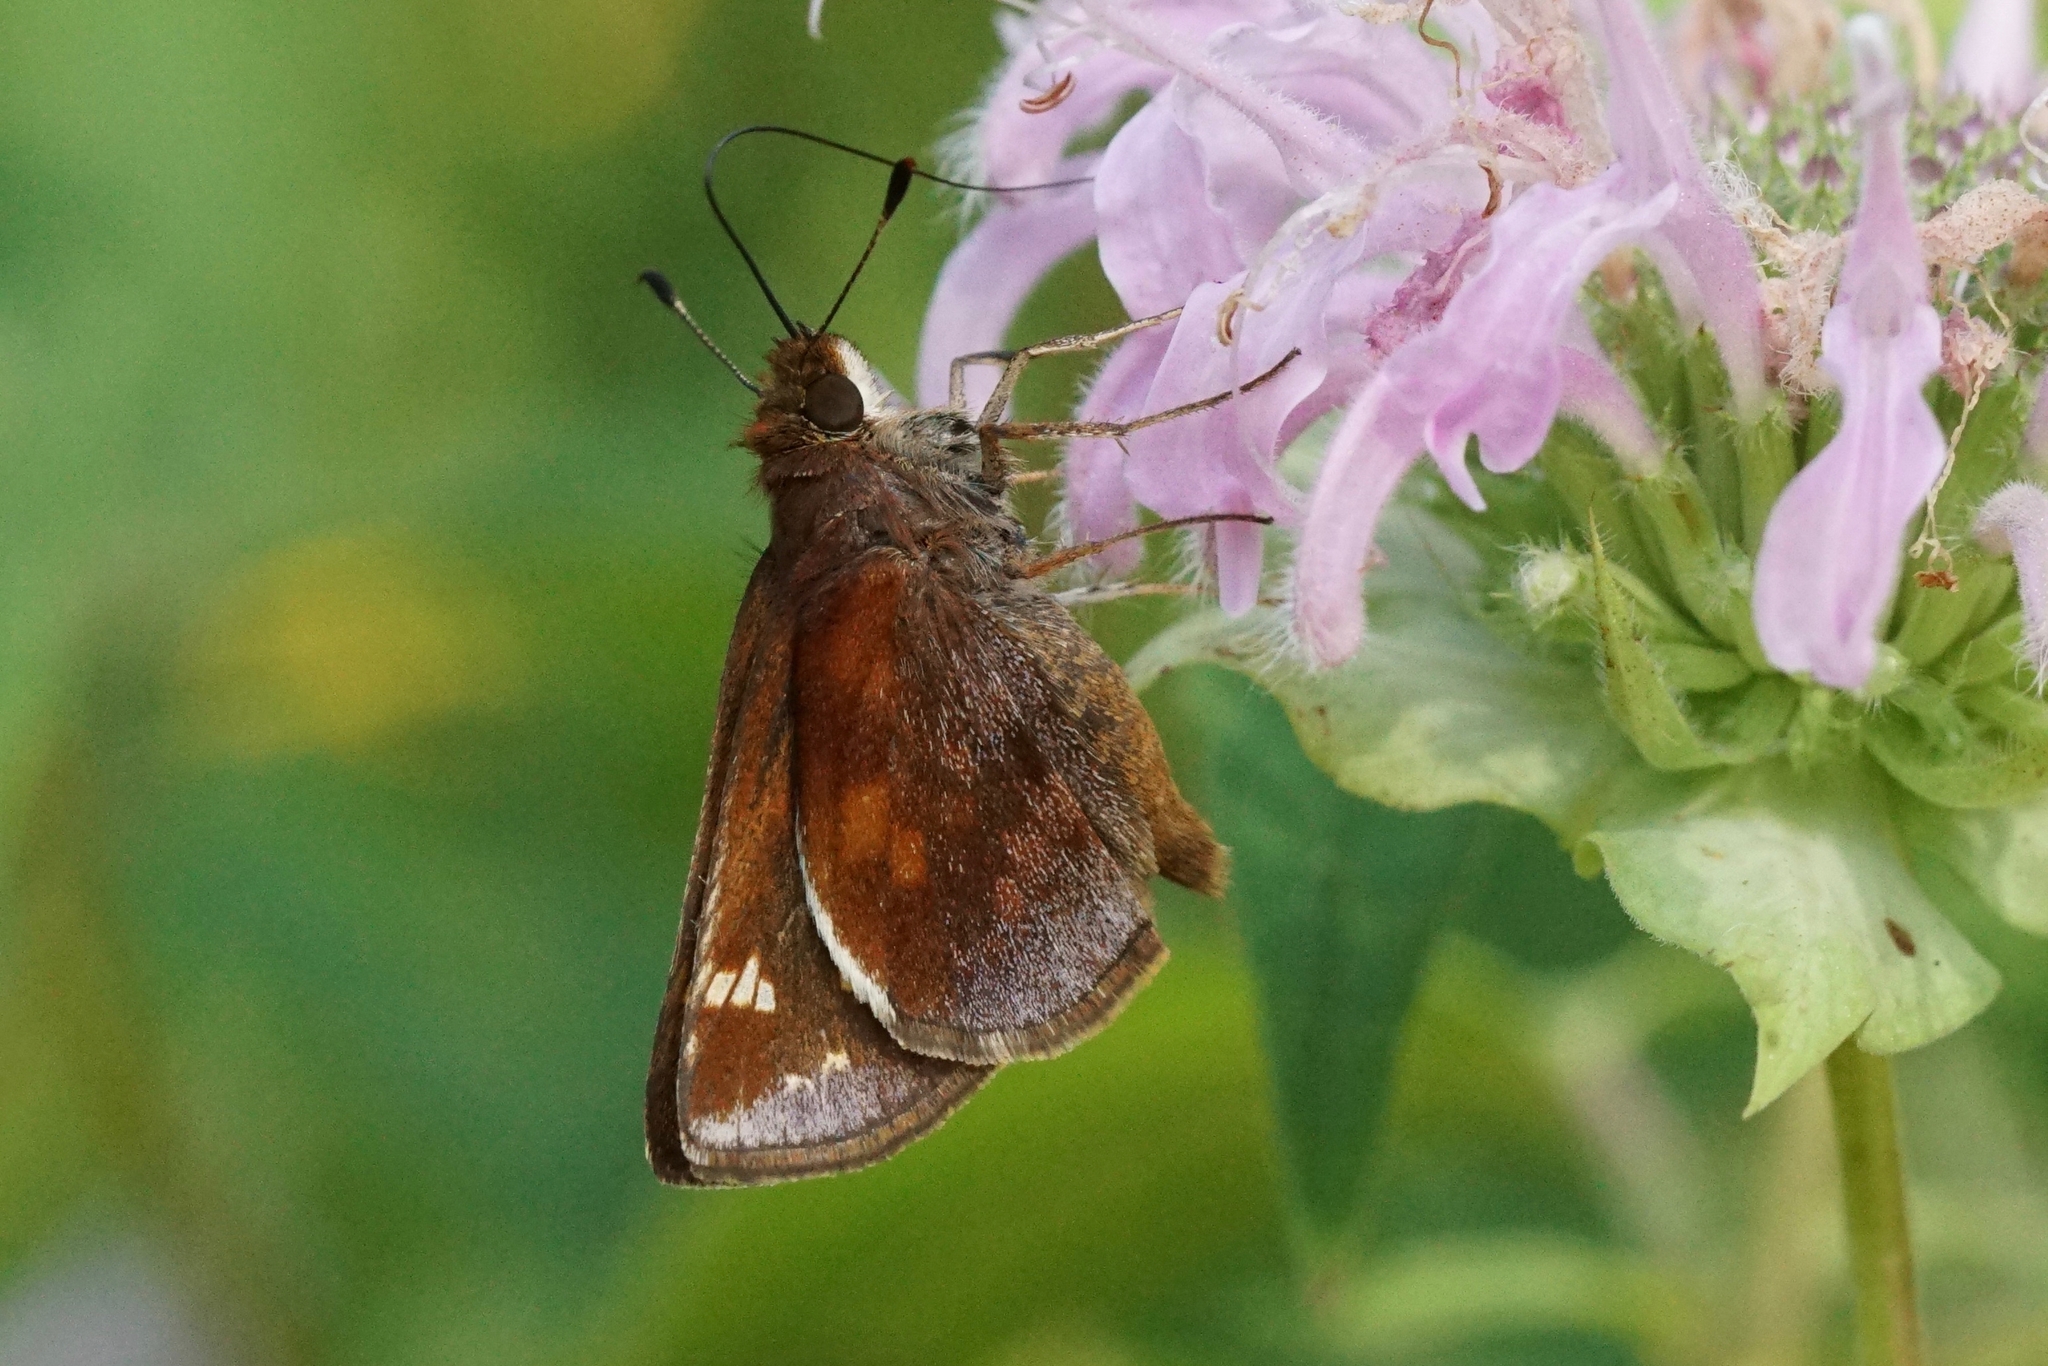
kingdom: Animalia
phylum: Arthropoda
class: Insecta
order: Lepidoptera
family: Hesperiidae
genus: Lon
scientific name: Lon zabulon
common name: Zabulon skipper
